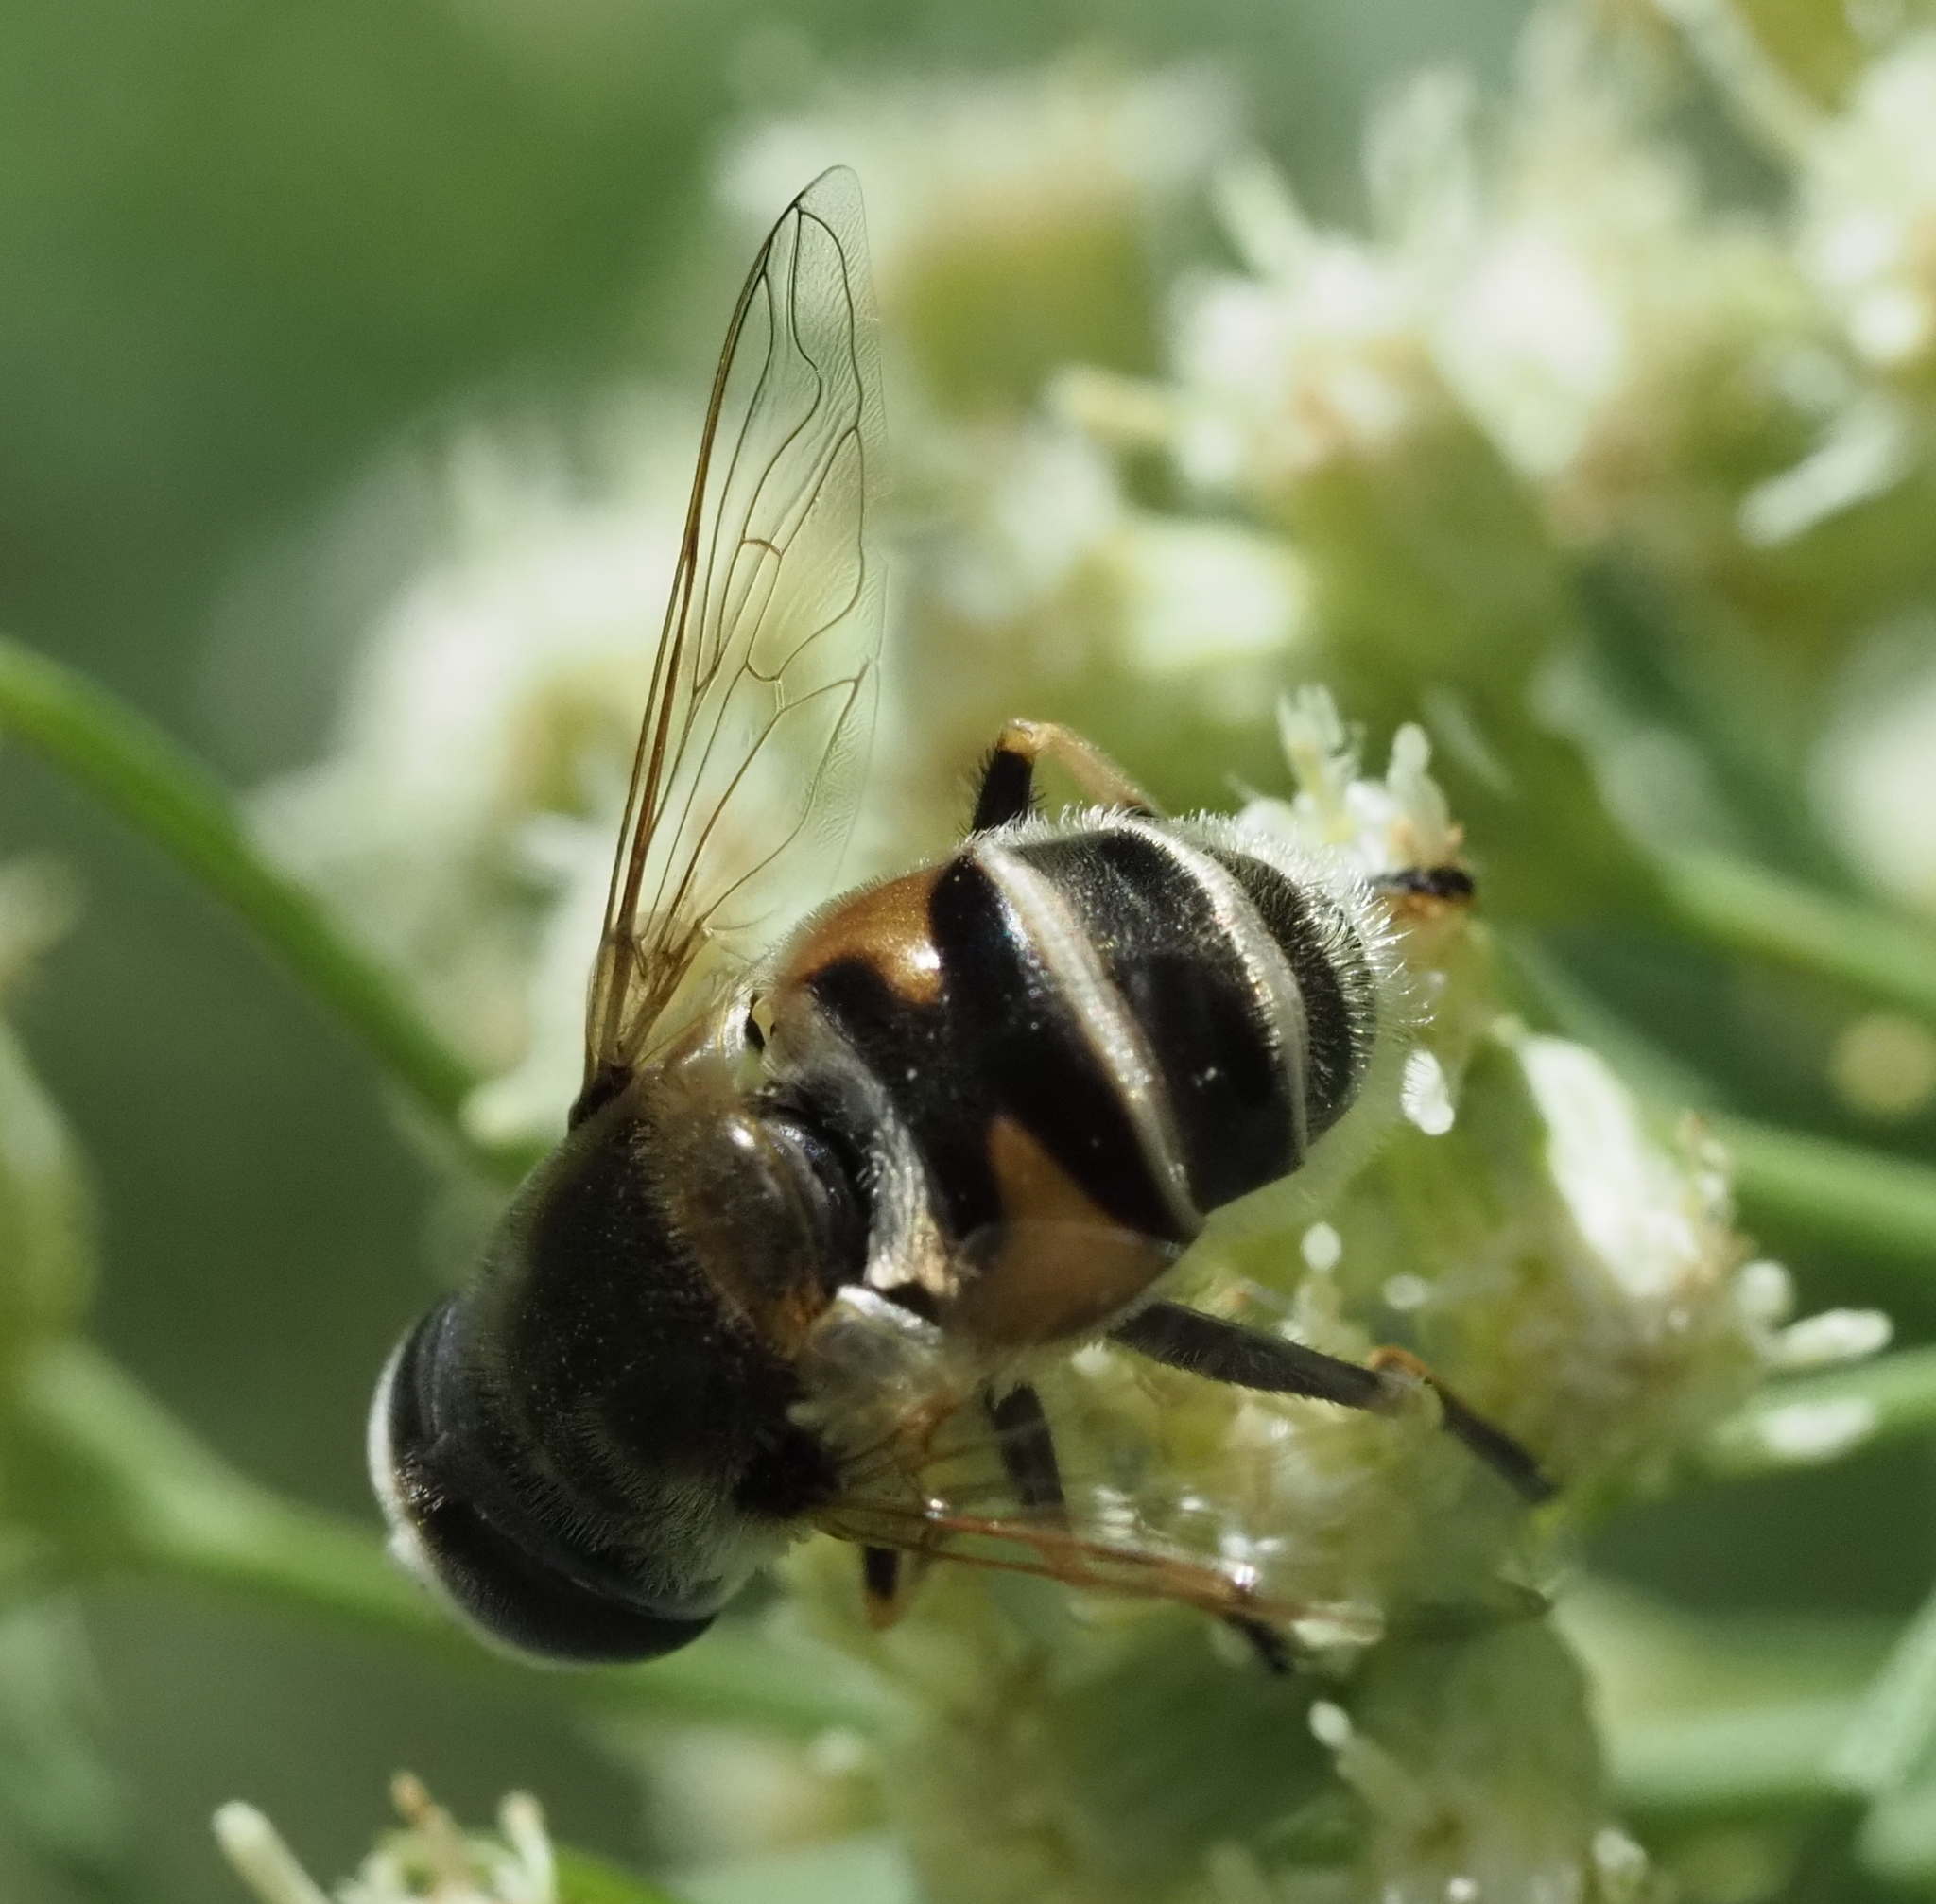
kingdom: Animalia
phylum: Arthropoda
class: Insecta
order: Diptera
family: Syrphidae
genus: Eristalis
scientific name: Eristalis stipator
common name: Yellow-shouldered drone fly
